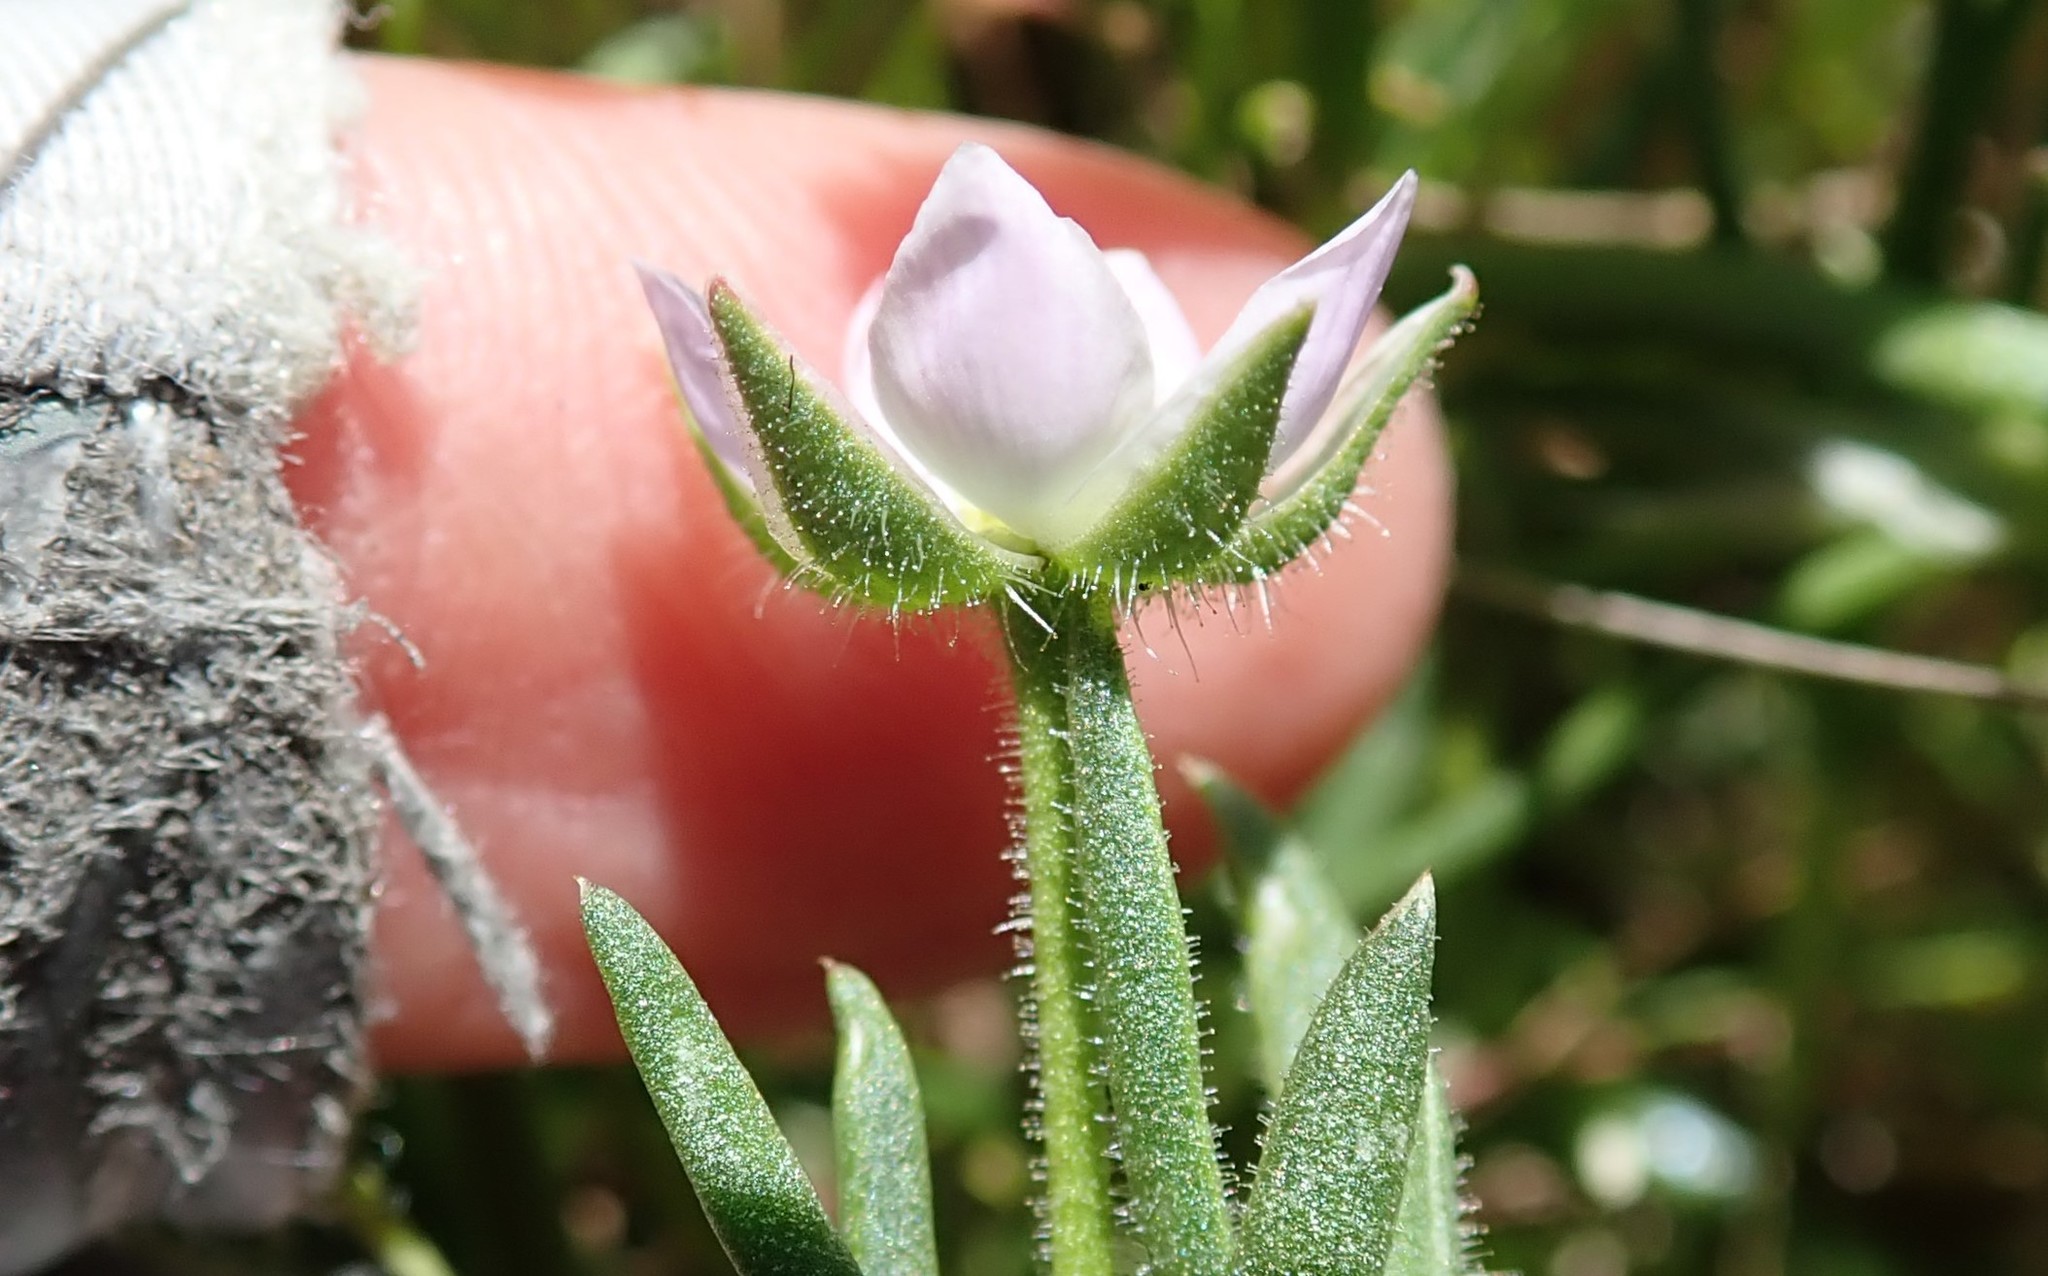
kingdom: Plantae
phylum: Tracheophyta
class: Magnoliopsida
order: Caryophyllales
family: Caryophyllaceae
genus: Spergularia
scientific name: Spergularia rubra
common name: Red sand-spurrey
